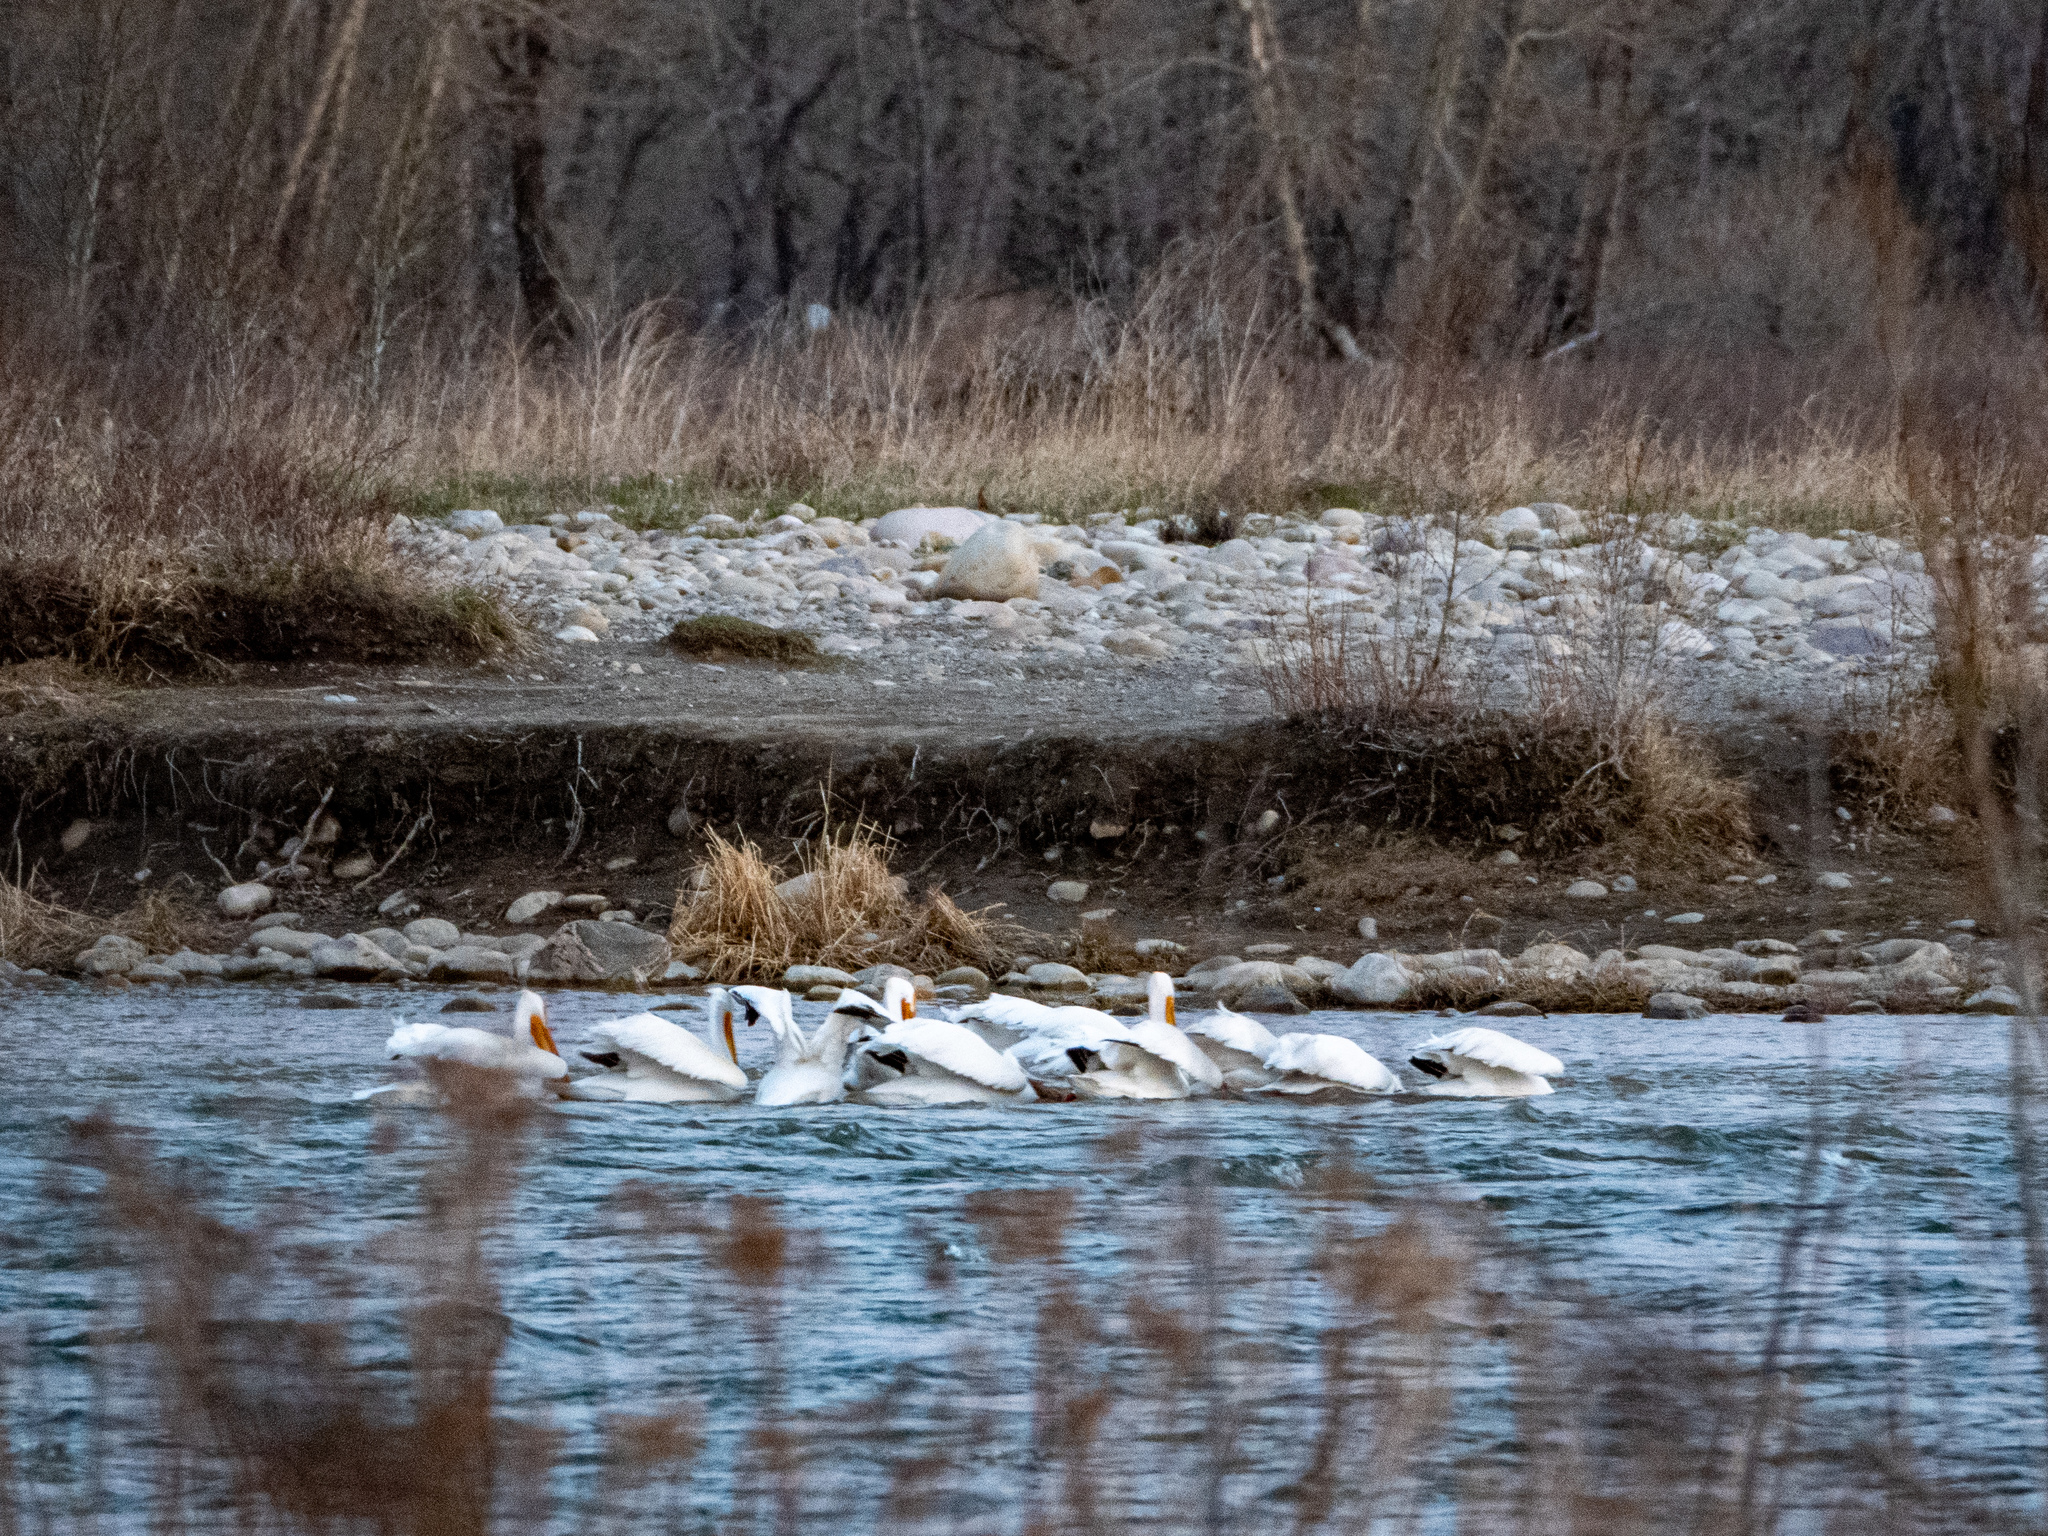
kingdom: Animalia
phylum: Chordata
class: Aves
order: Pelecaniformes
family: Pelecanidae
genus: Pelecanus
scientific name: Pelecanus erythrorhynchos
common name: American white pelican
